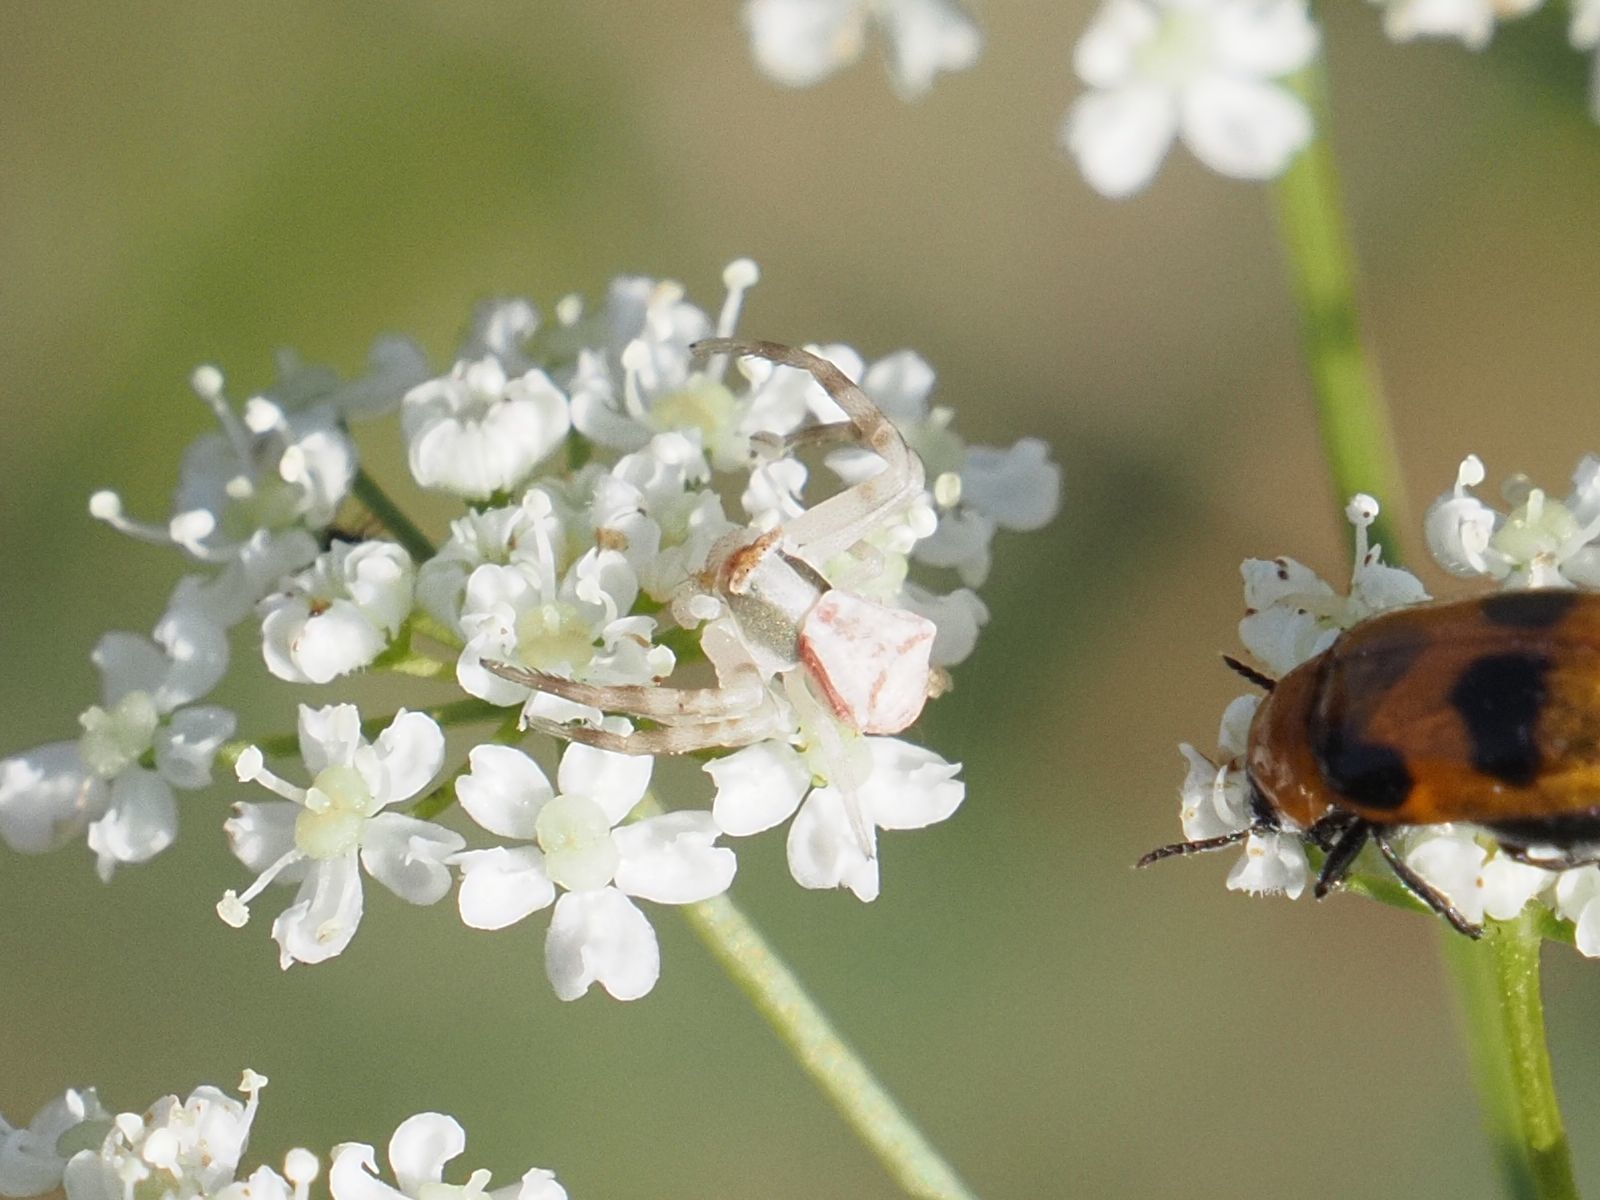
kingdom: Animalia
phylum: Arthropoda
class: Arachnida
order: Araneae
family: Thomisidae
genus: Thomisus
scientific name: Thomisus onustus
